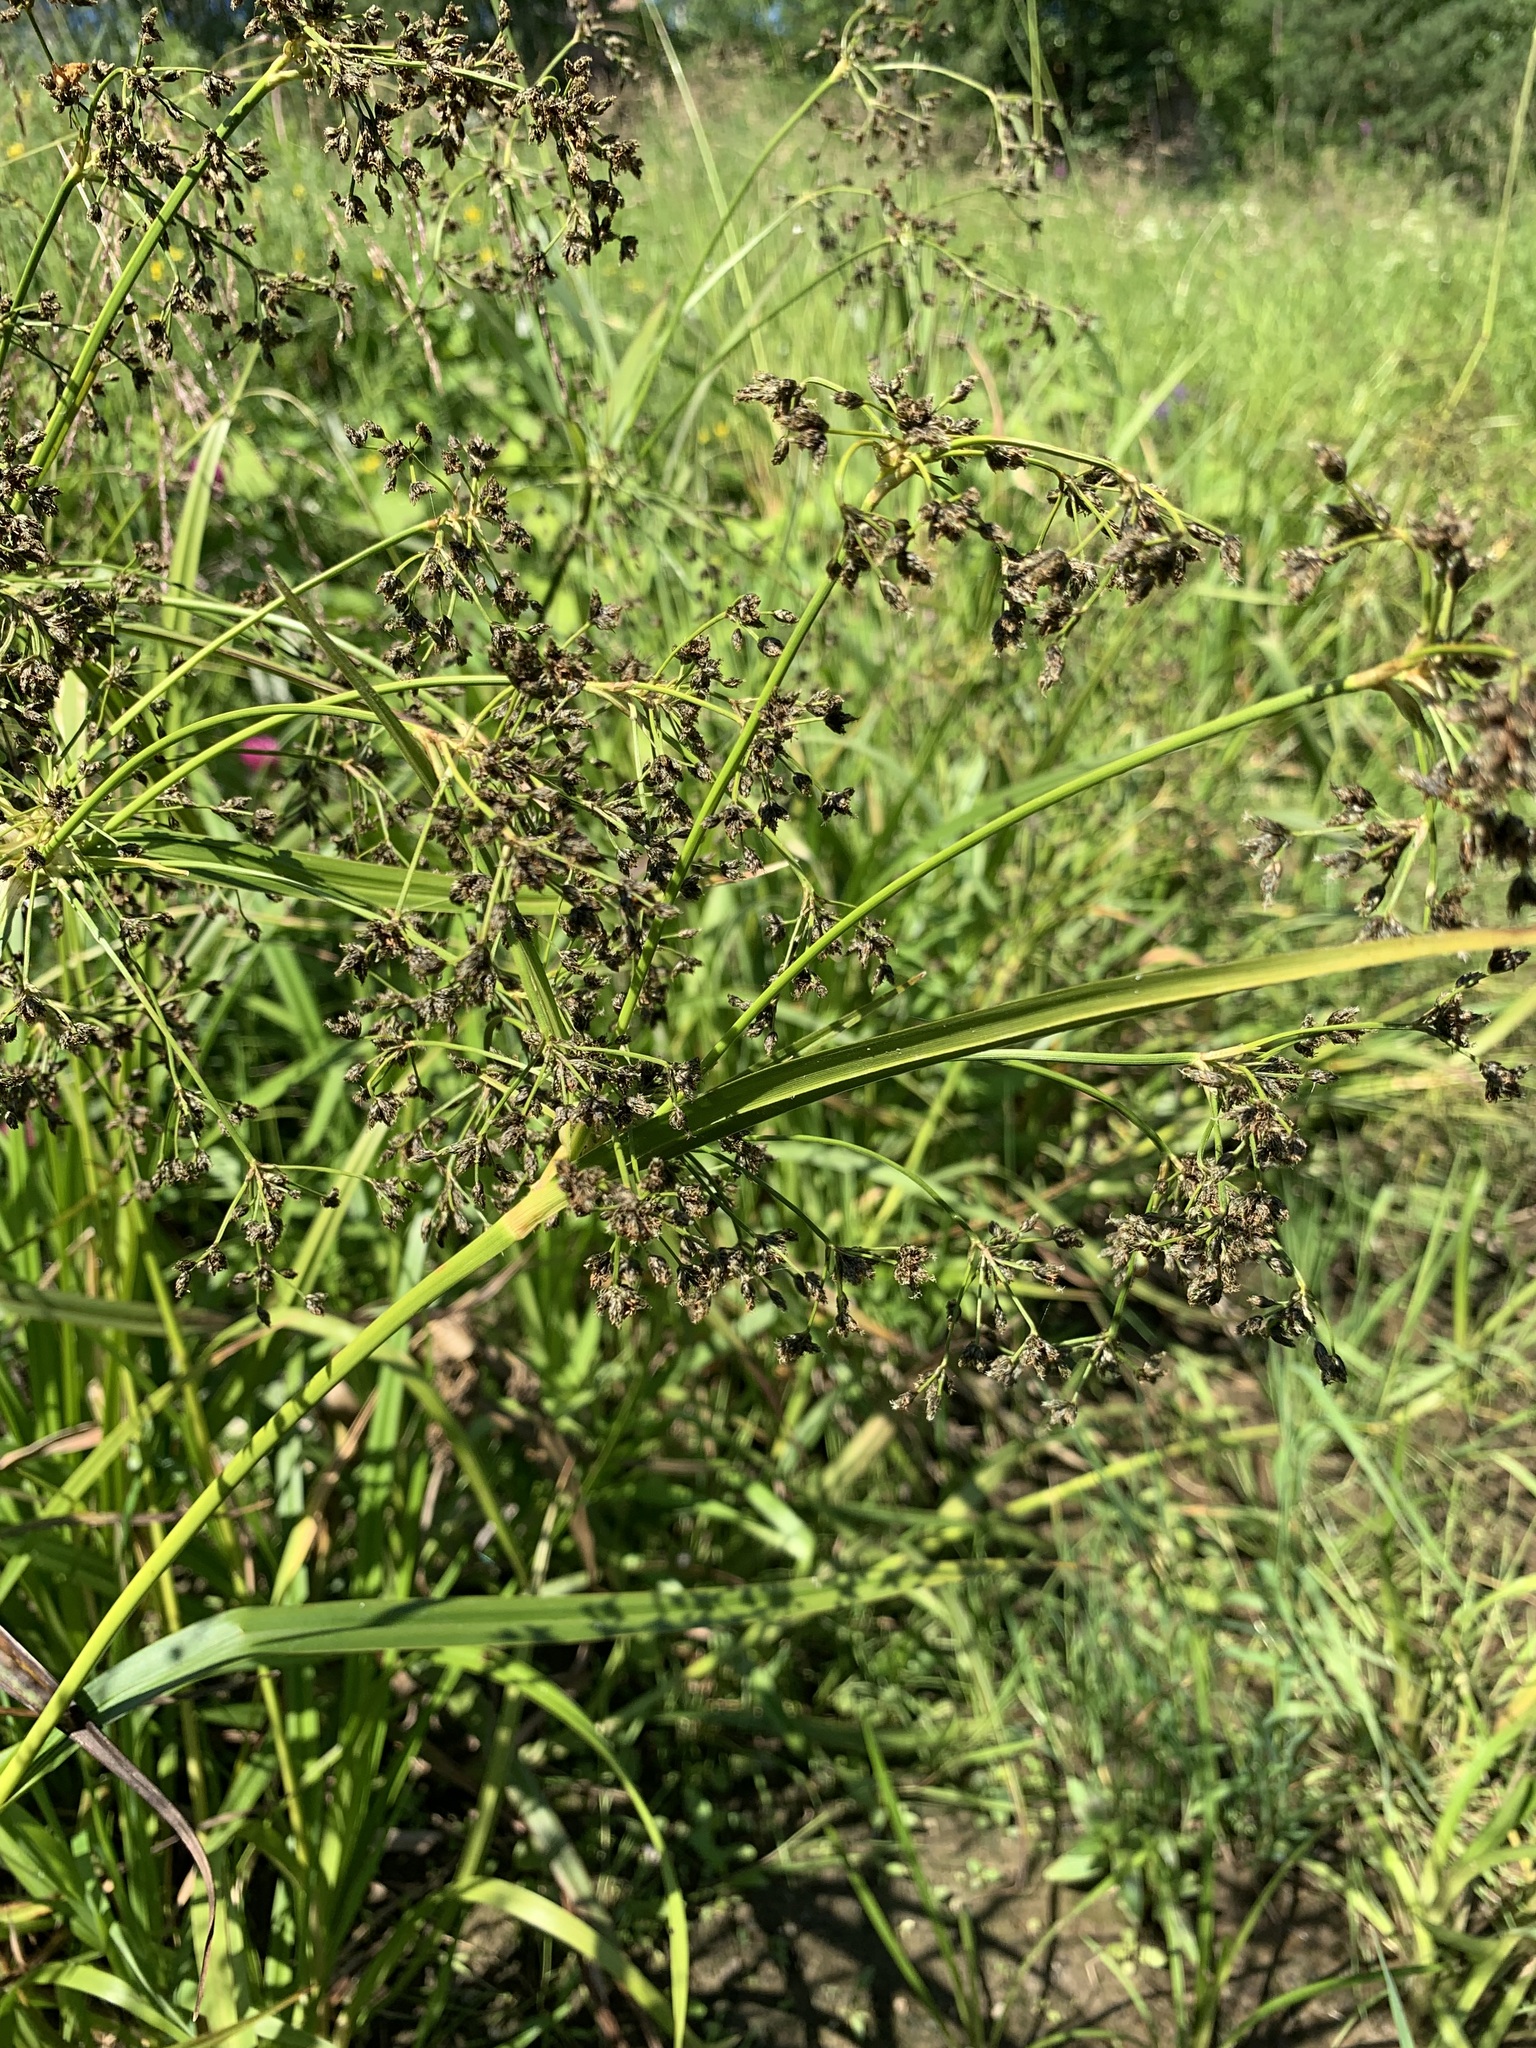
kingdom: Plantae
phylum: Tracheophyta
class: Liliopsida
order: Poales
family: Cyperaceae
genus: Scirpus
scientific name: Scirpus sylvaticus
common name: Wood club-rush
